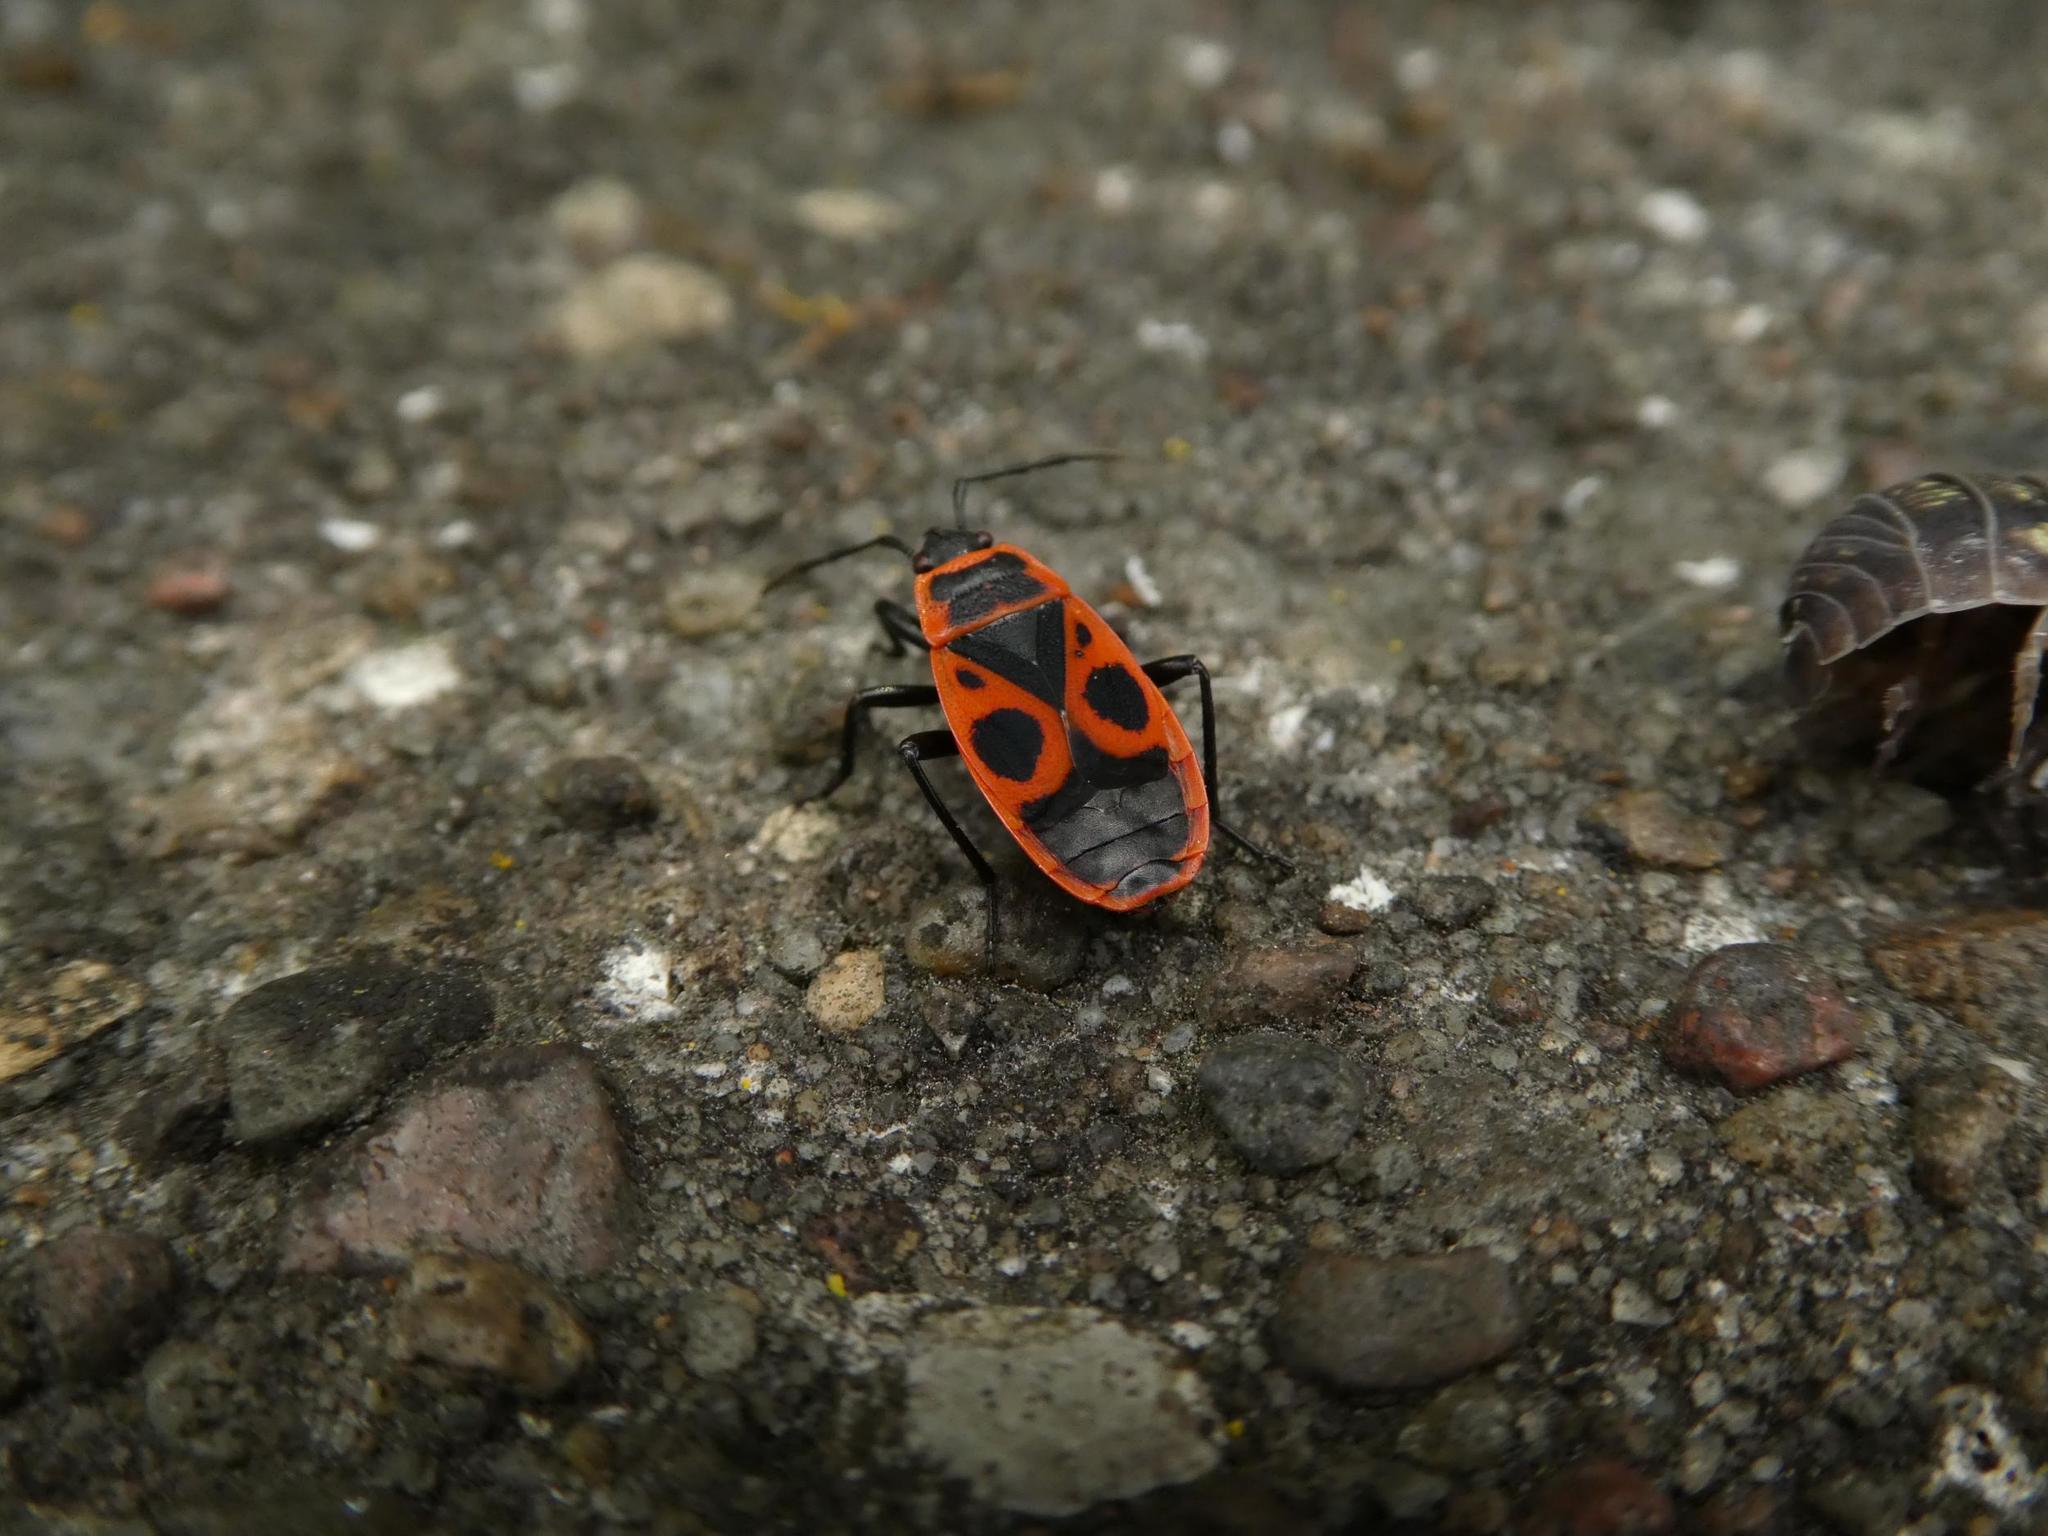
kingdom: Animalia
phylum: Arthropoda
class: Insecta
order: Hemiptera
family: Pyrrhocoridae
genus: Pyrrhocoris
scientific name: Pyrrhocoris apterus
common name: Firebug
